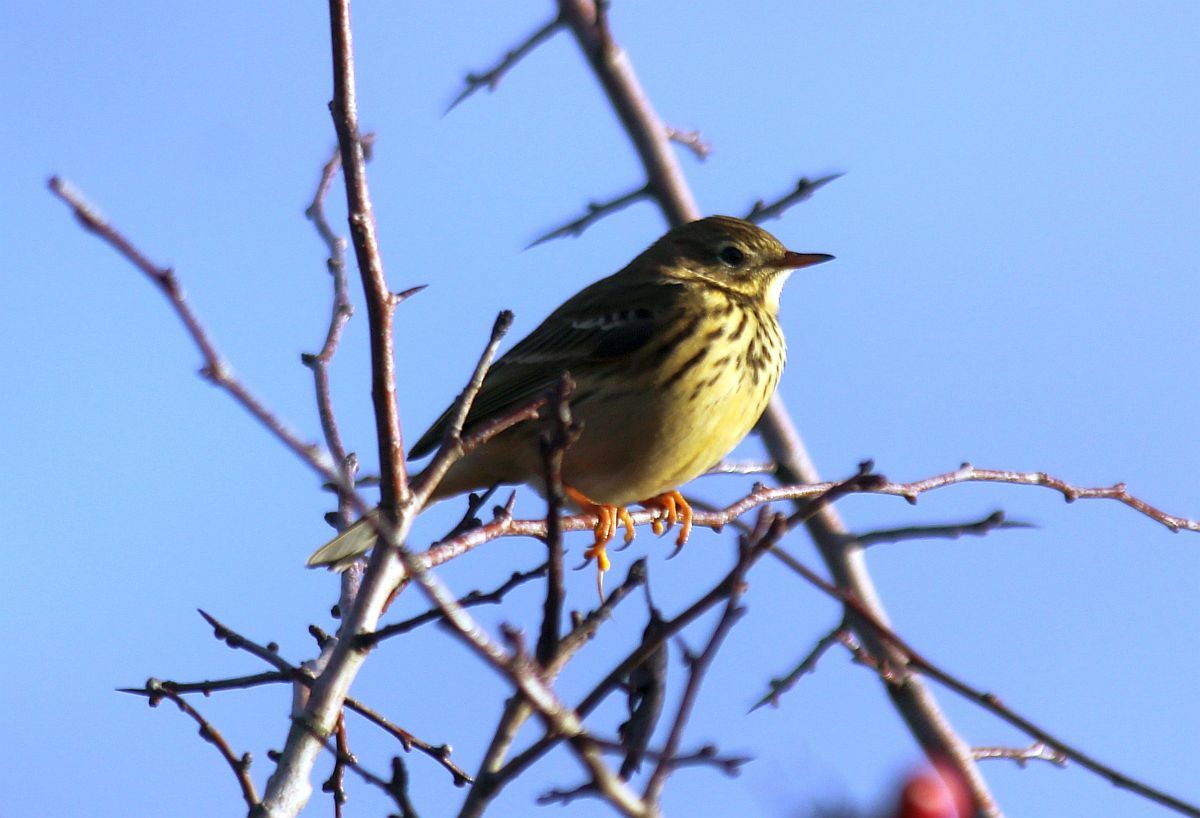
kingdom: Animalia
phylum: Chordata
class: Aves
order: Passeriformes
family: Motacillidae
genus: Anthus
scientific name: Anthus pratensis
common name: Meadow pipit
